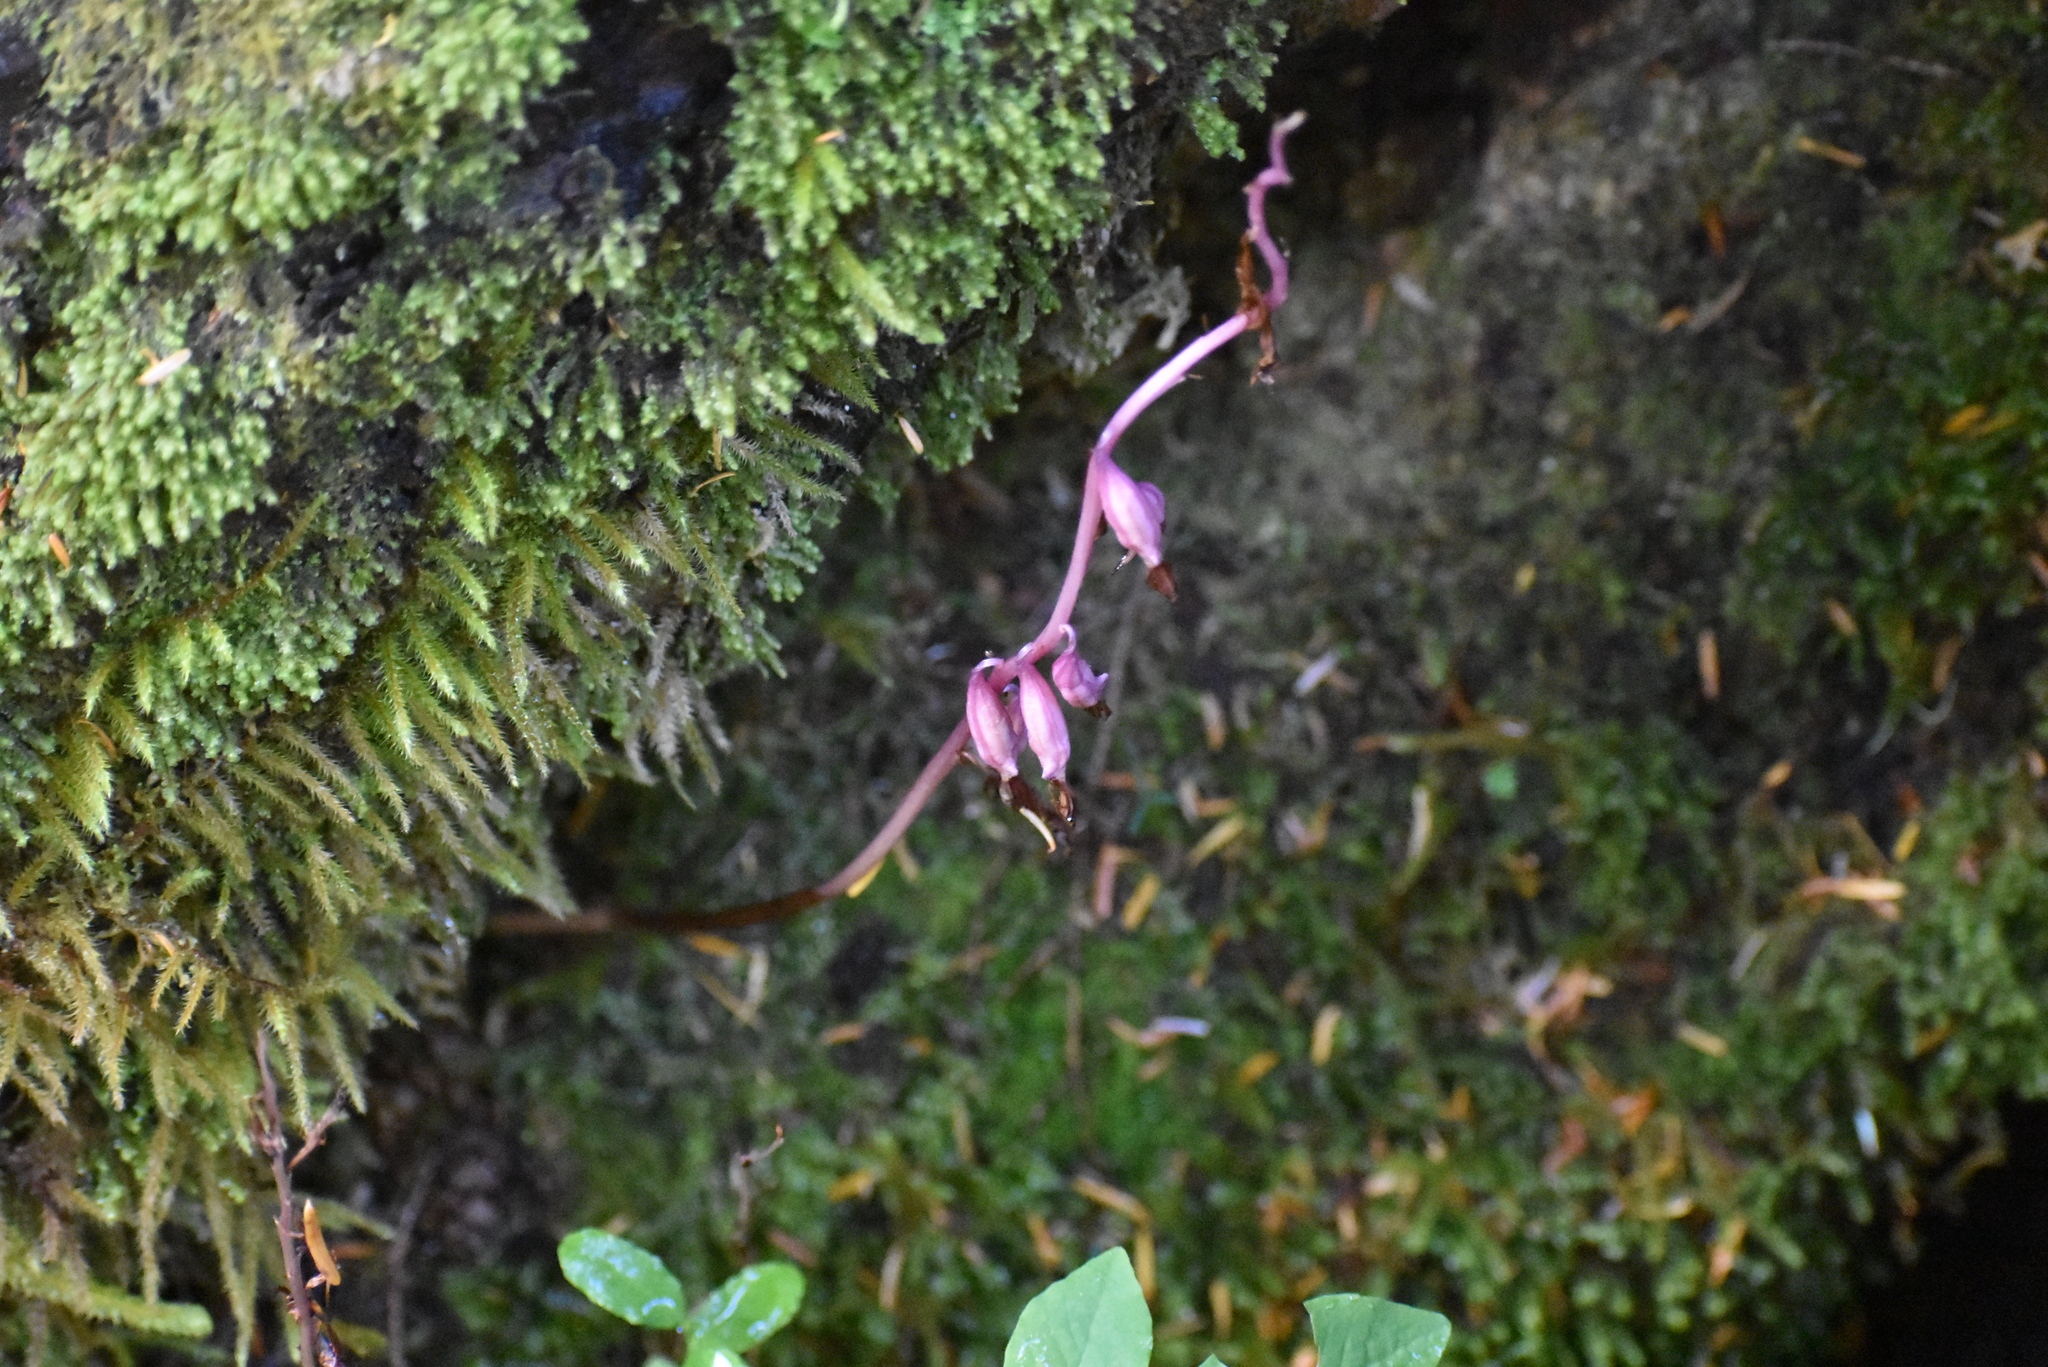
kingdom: Plantae
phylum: Tracheophyta
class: Liliopsida
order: Asparagales
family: Orchidaceae
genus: Corallorhiza
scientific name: Corallorhiza mertensiana
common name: Pacific coralroot
